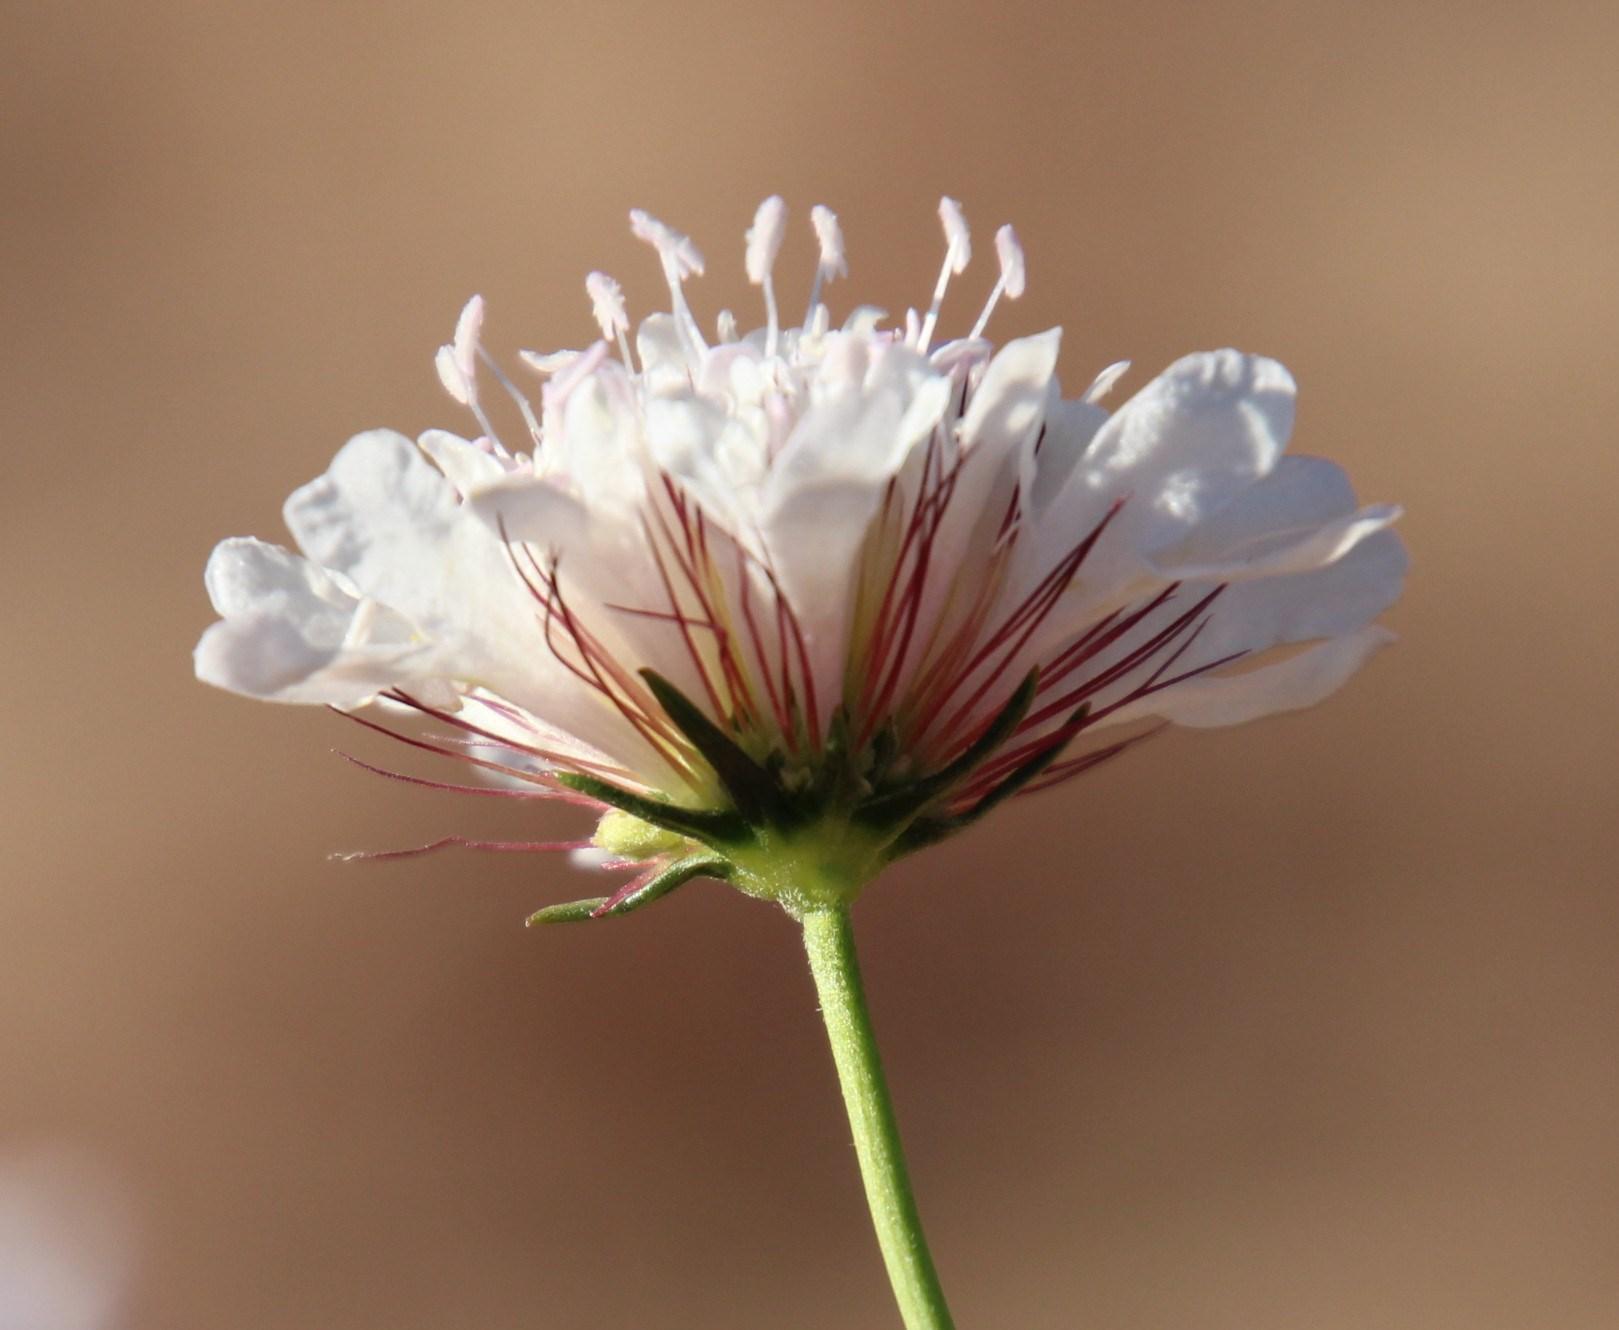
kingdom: Plantae
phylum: Tracheophyta
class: Magnoliopsida
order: Dipsacales
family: Caprifoliaceae
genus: Scabiosa
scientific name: Scabiosa columbaria
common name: Small scabious
